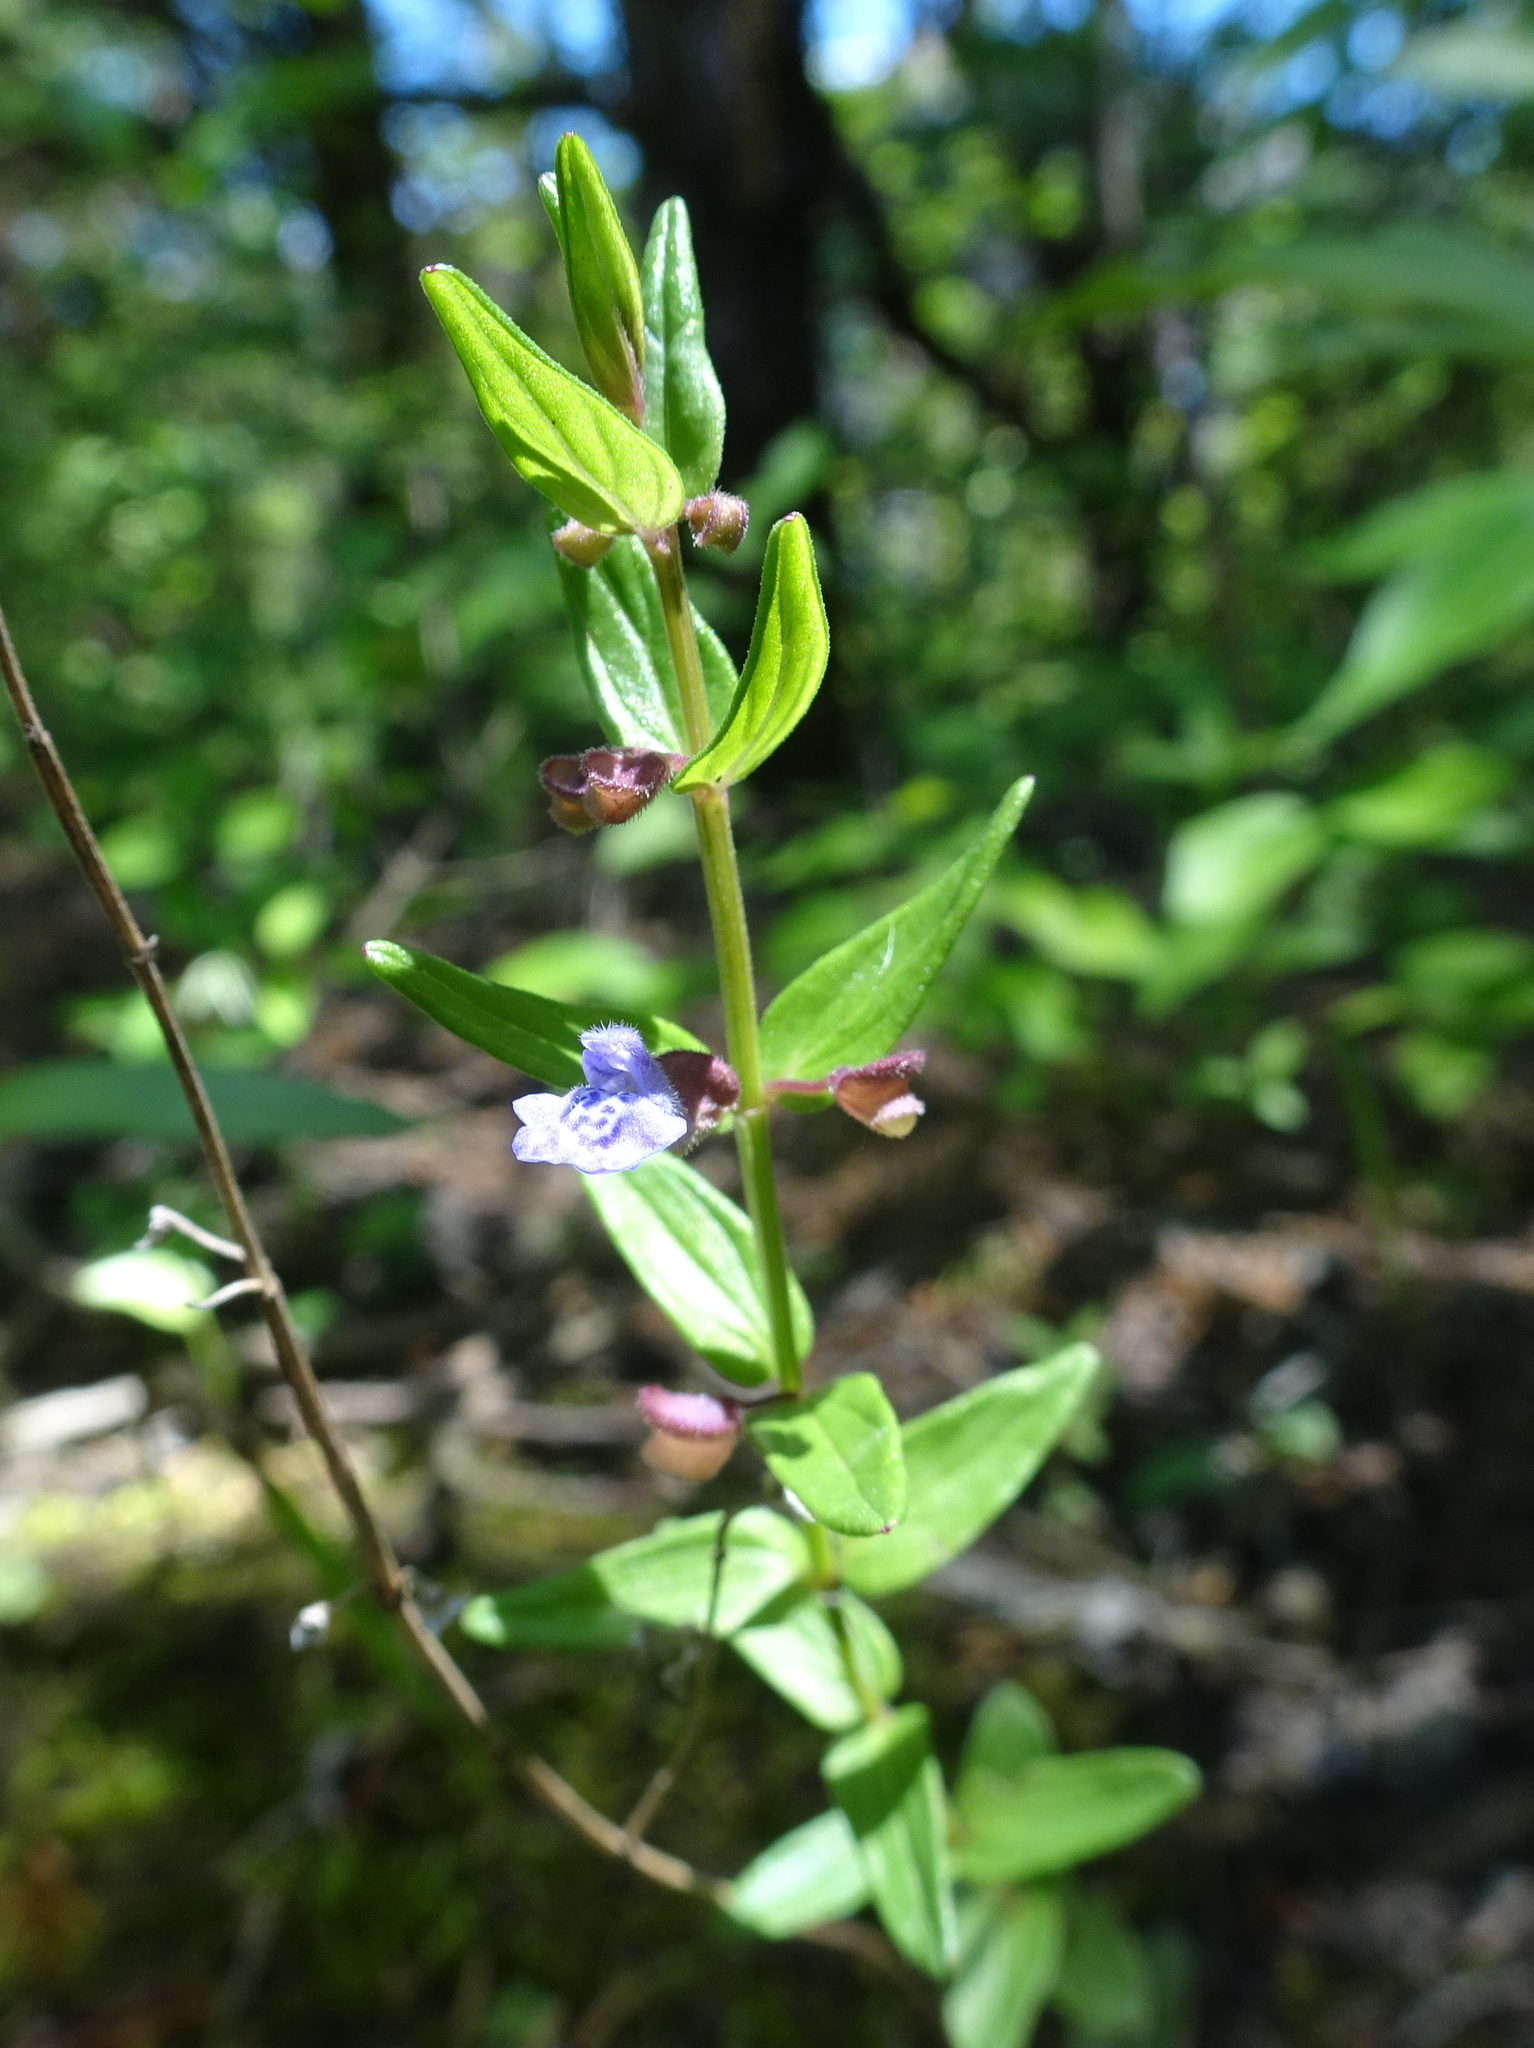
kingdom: Plantae
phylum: Tracheophyta
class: Magnoliopsida
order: Lamiales
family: Lamiaceae
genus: Scutellaria
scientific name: Scutellaria parvula
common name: Little scullcap
